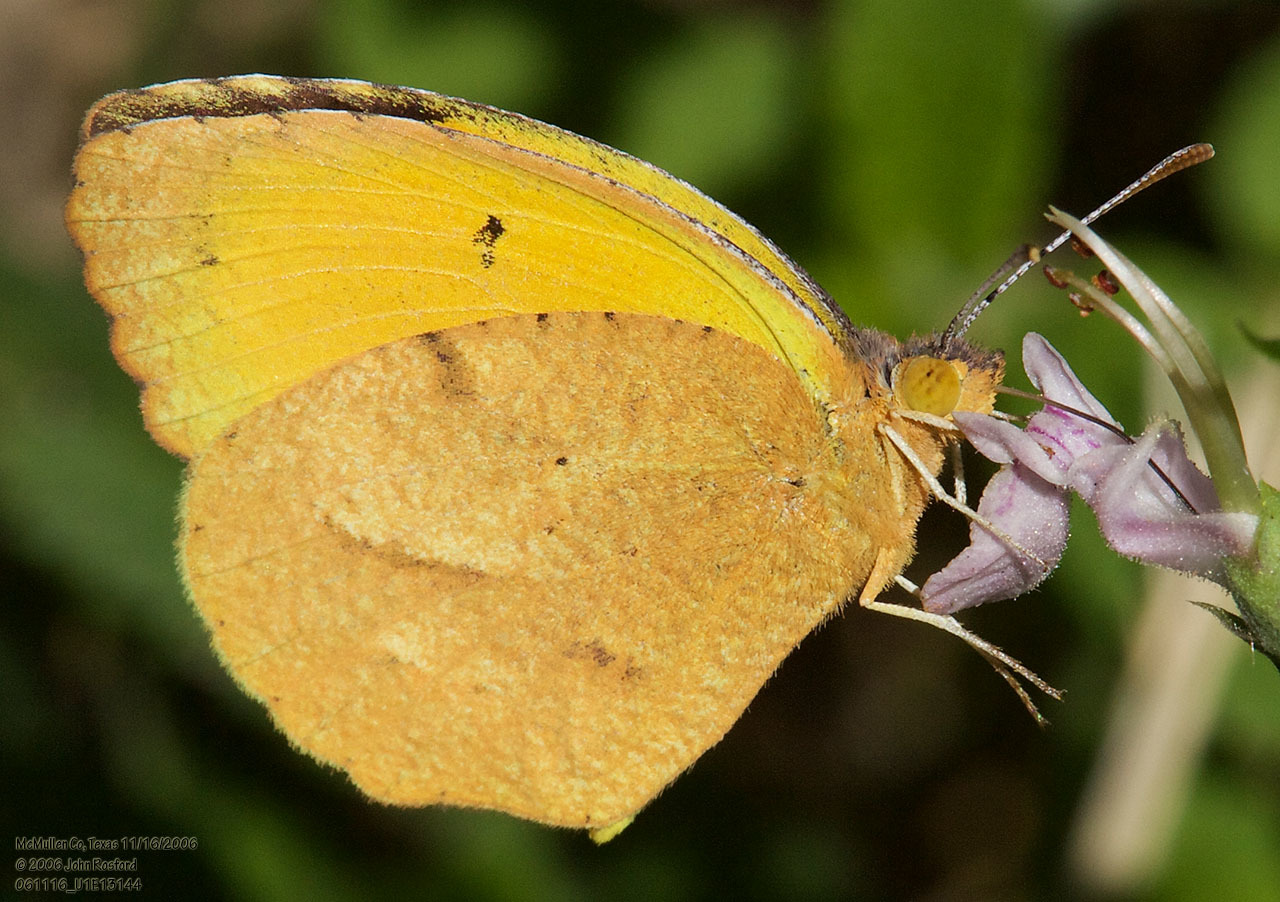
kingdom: Animalia
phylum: Arthropoda
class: Insecta
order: Lepidoptera
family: Pieridae
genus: Abaeis
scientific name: Abaeis nicippe
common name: Sleepy orange
